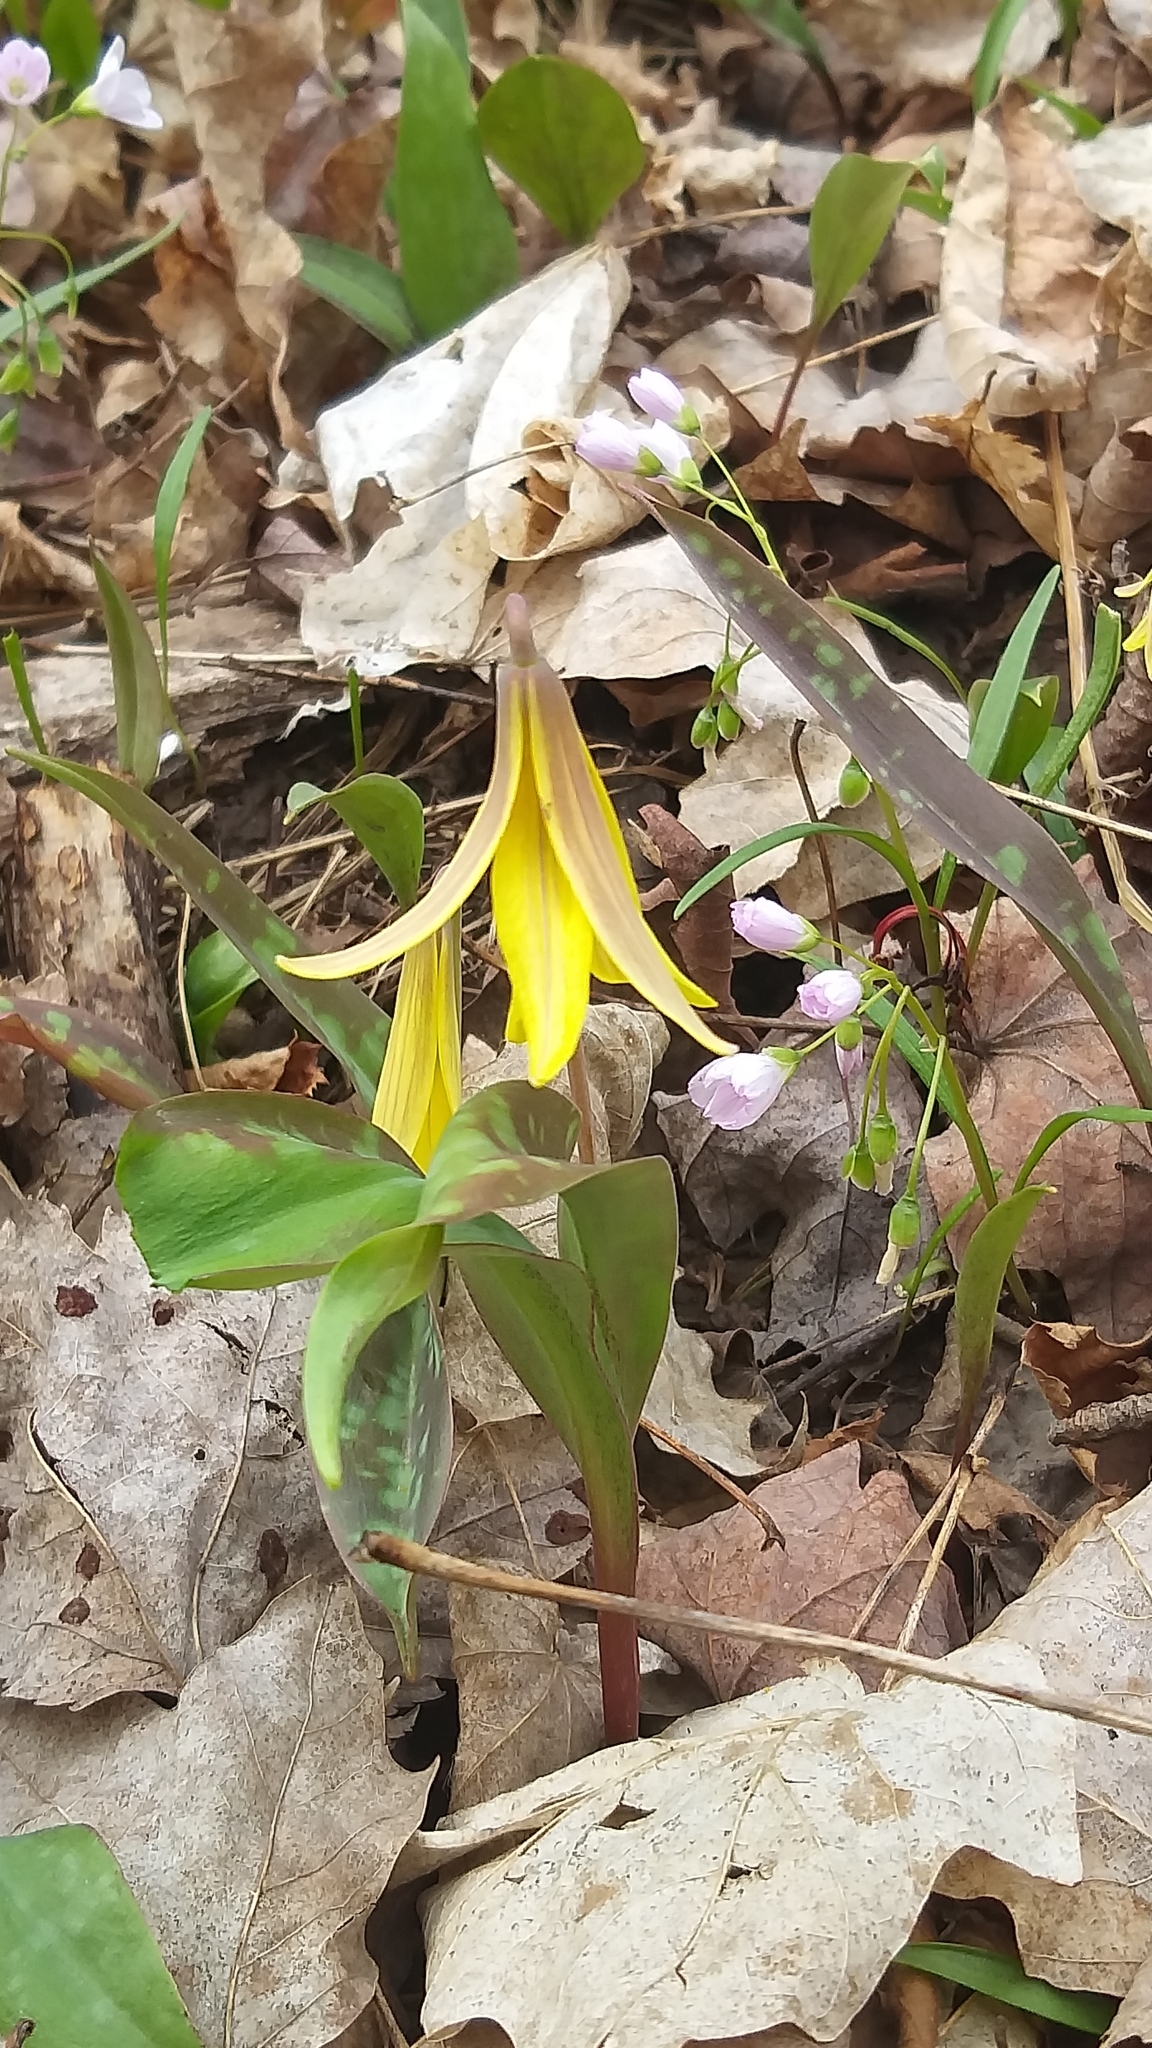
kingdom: Plantae
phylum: Tracheophyta
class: Liliopsida
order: Liliales
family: Liliaceae
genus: Erythronium
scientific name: Erythronium americanum
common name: Yellow adder's-tongue
